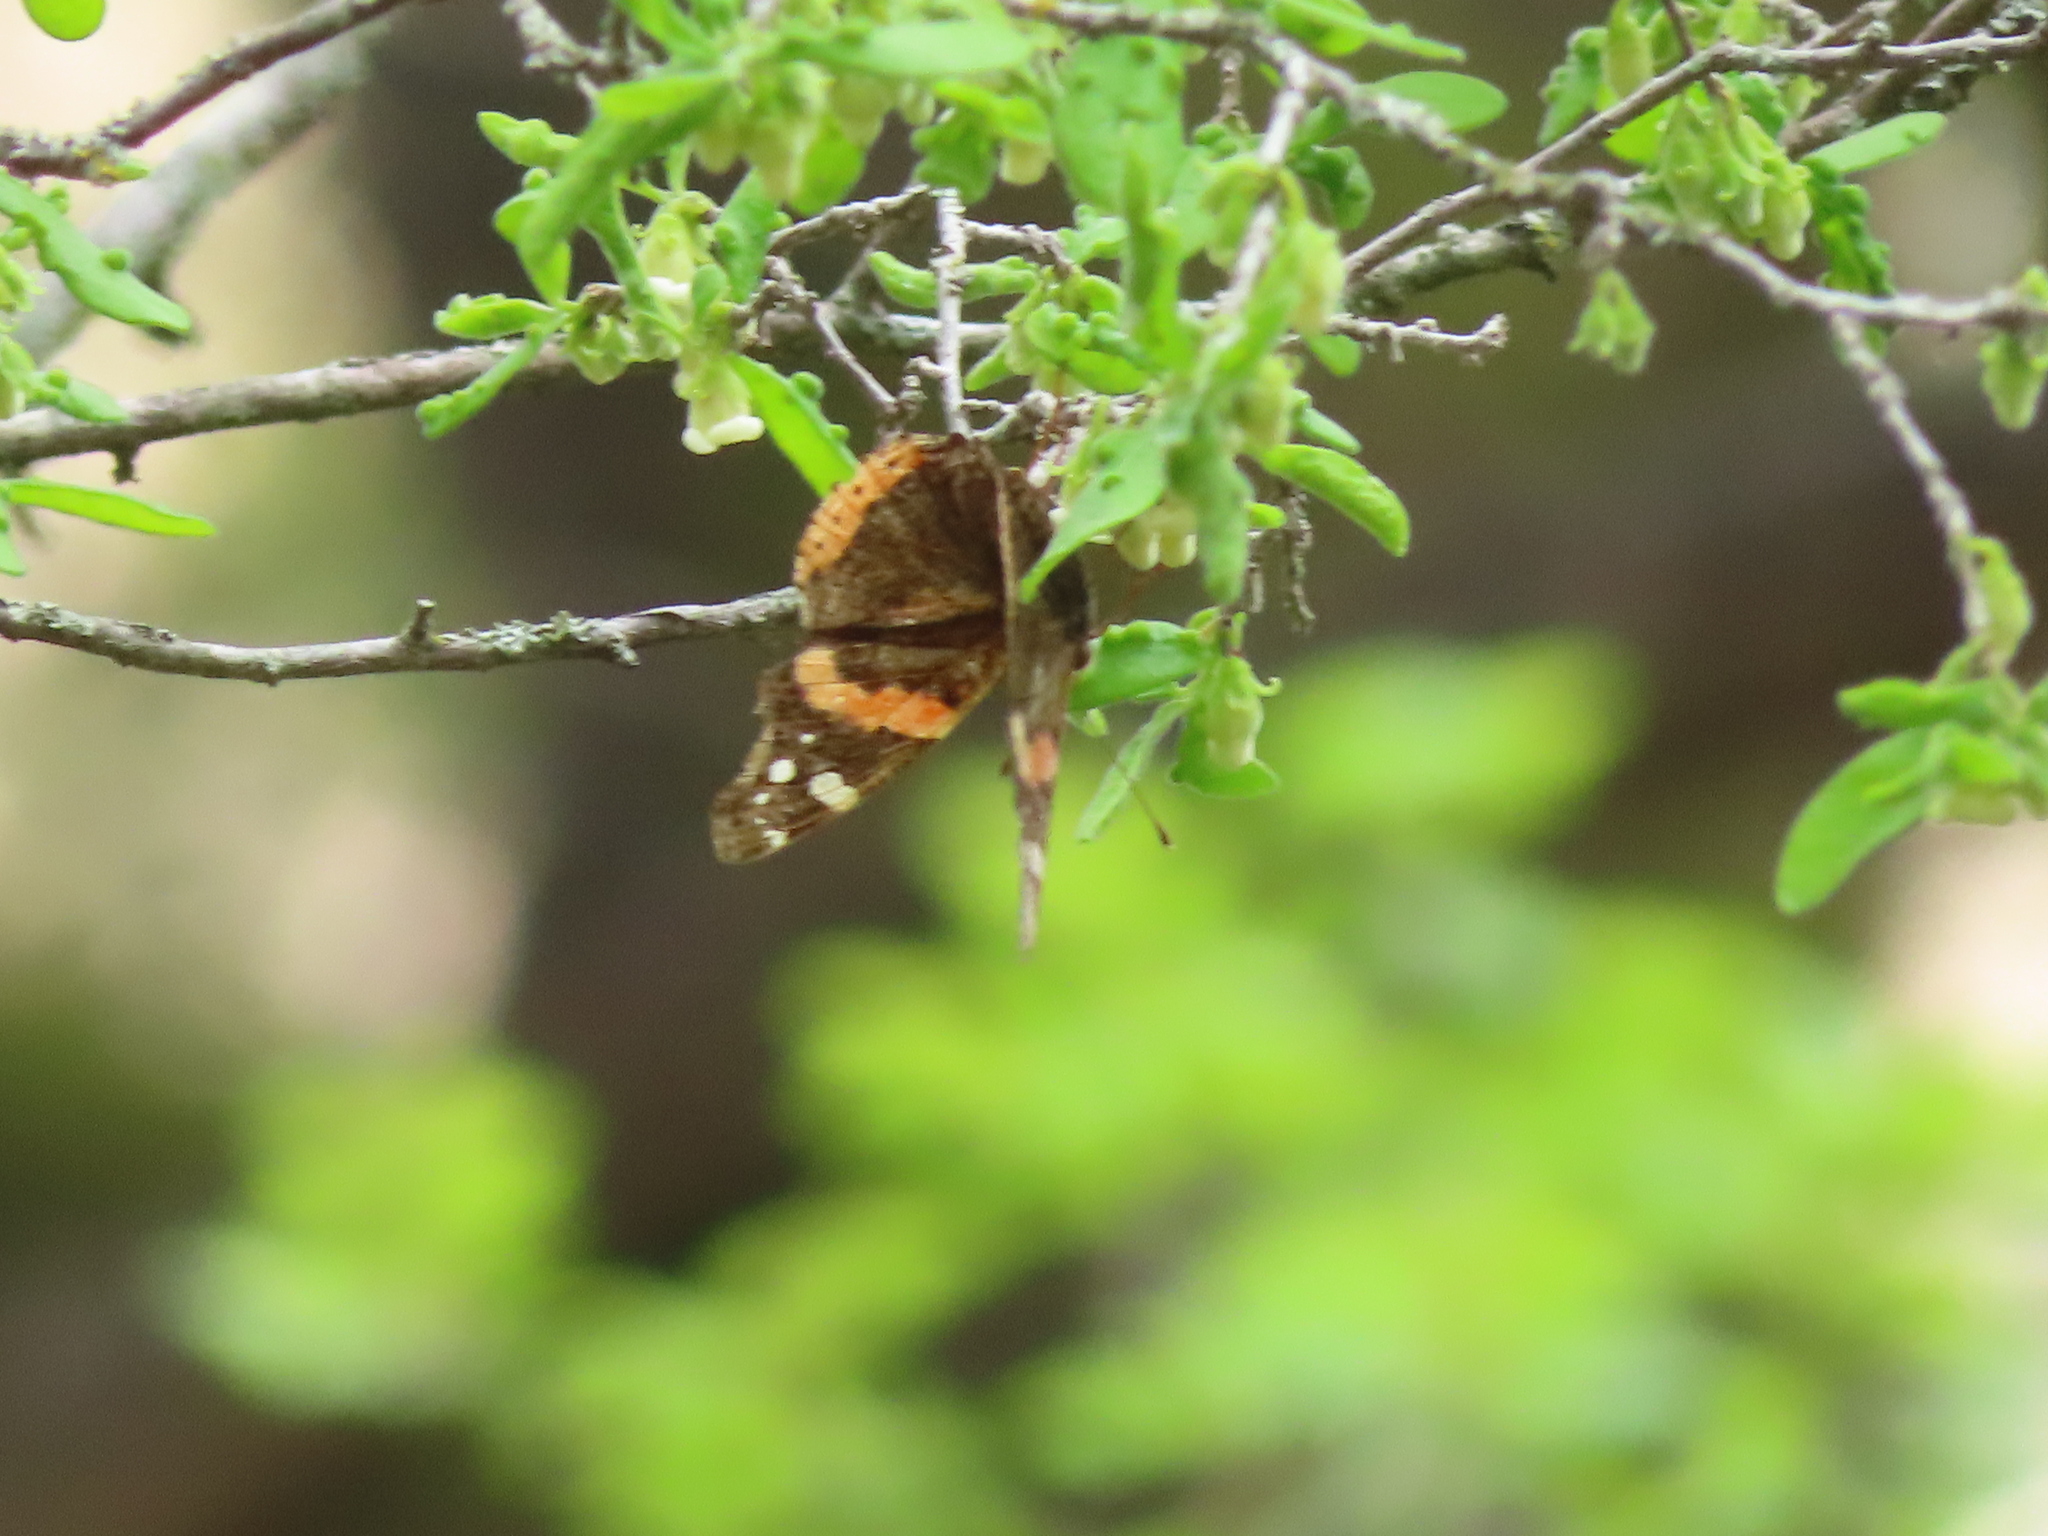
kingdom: Animalia
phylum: Arthropoda
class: Insecta
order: Lepidoptera
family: Nymphalidae
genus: Vanessa
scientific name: Vanessa atalanta
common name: Red admiral
